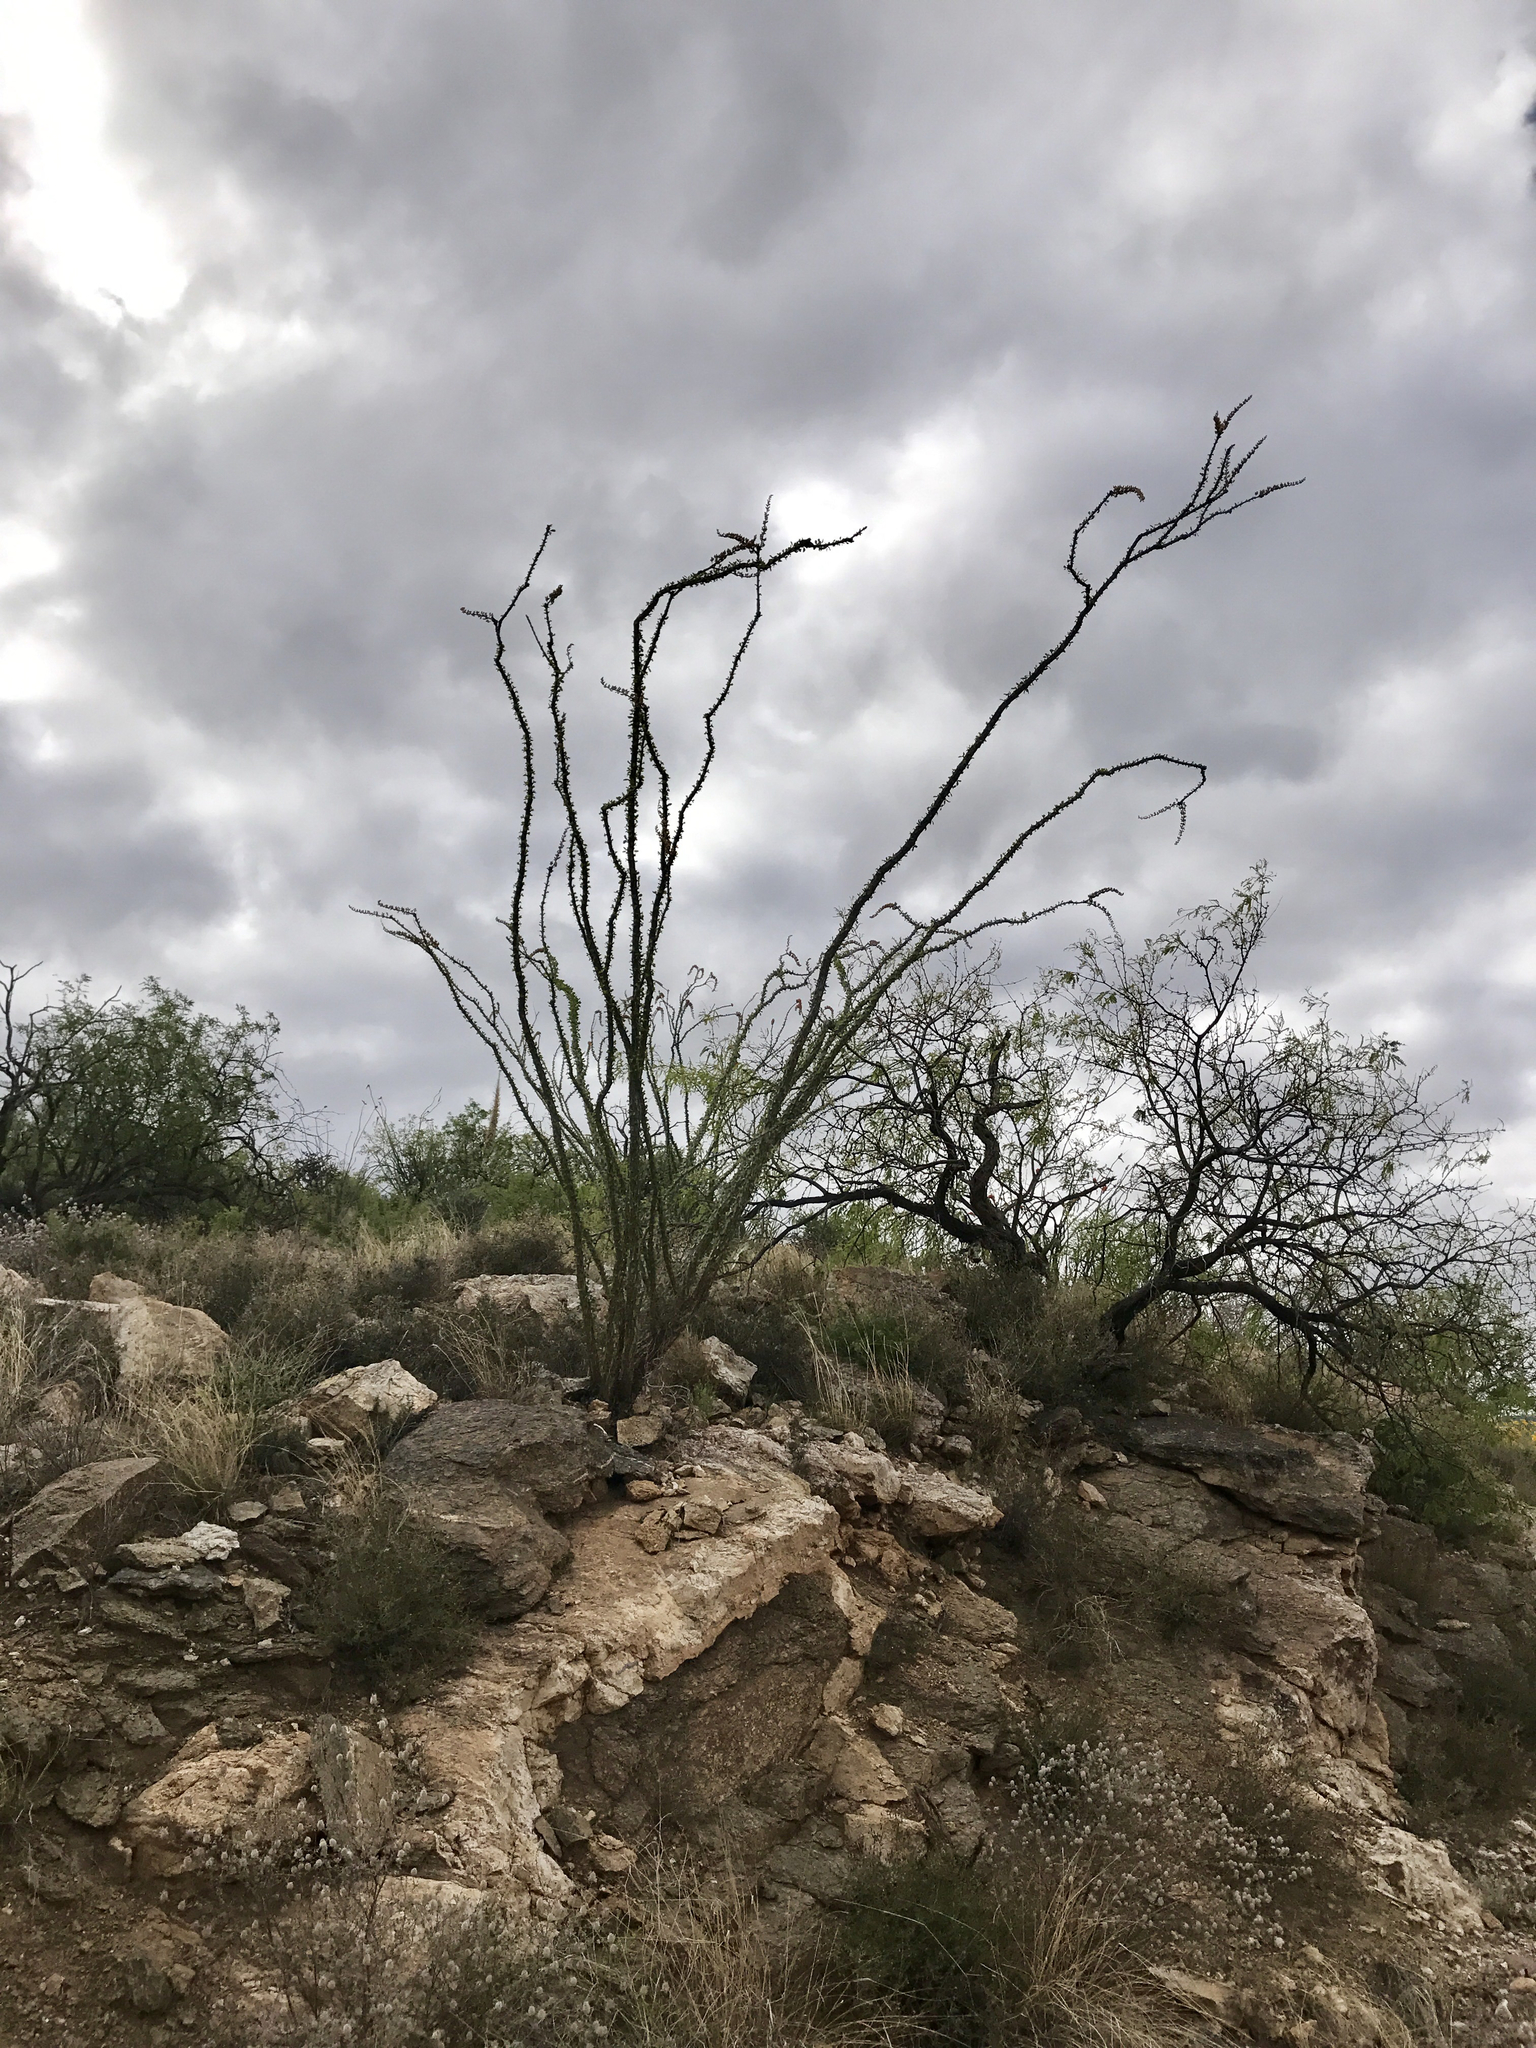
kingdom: Plantae
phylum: Tracheophyta
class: Magnoliopsida
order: Ericales
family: Fouquieriaceae
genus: Fouquieria
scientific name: Fouquieria splendens
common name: Vine-cactus
